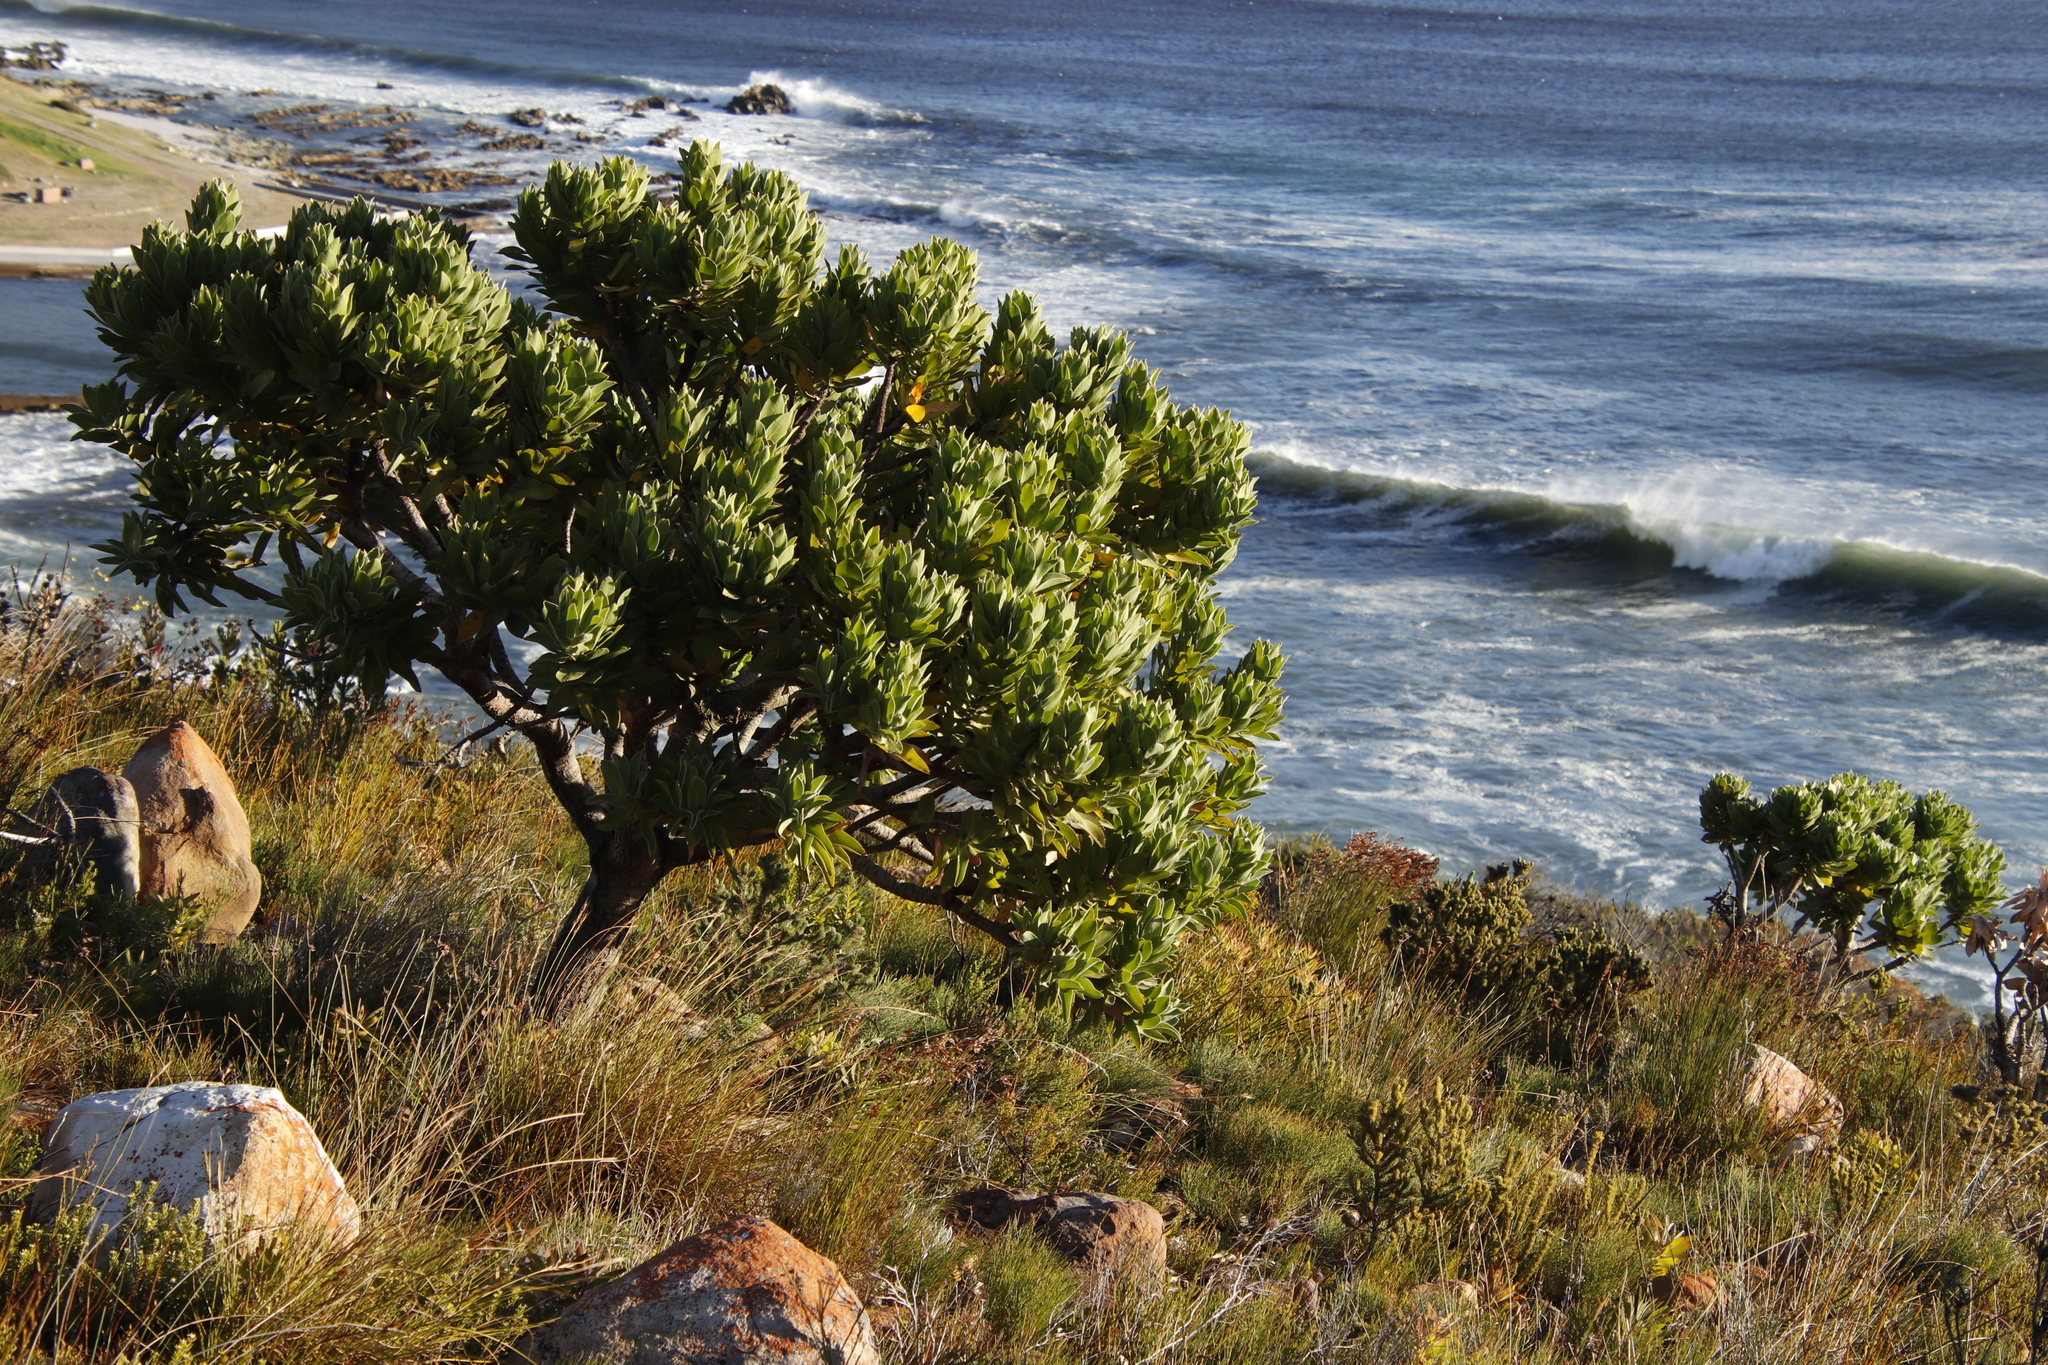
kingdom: Plantae
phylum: Tracheophyta
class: Magnoliopsida
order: Proteales
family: Proteaceae
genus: Leucospermum
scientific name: Leucospermum conocarpodendron
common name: Tree pincushion
